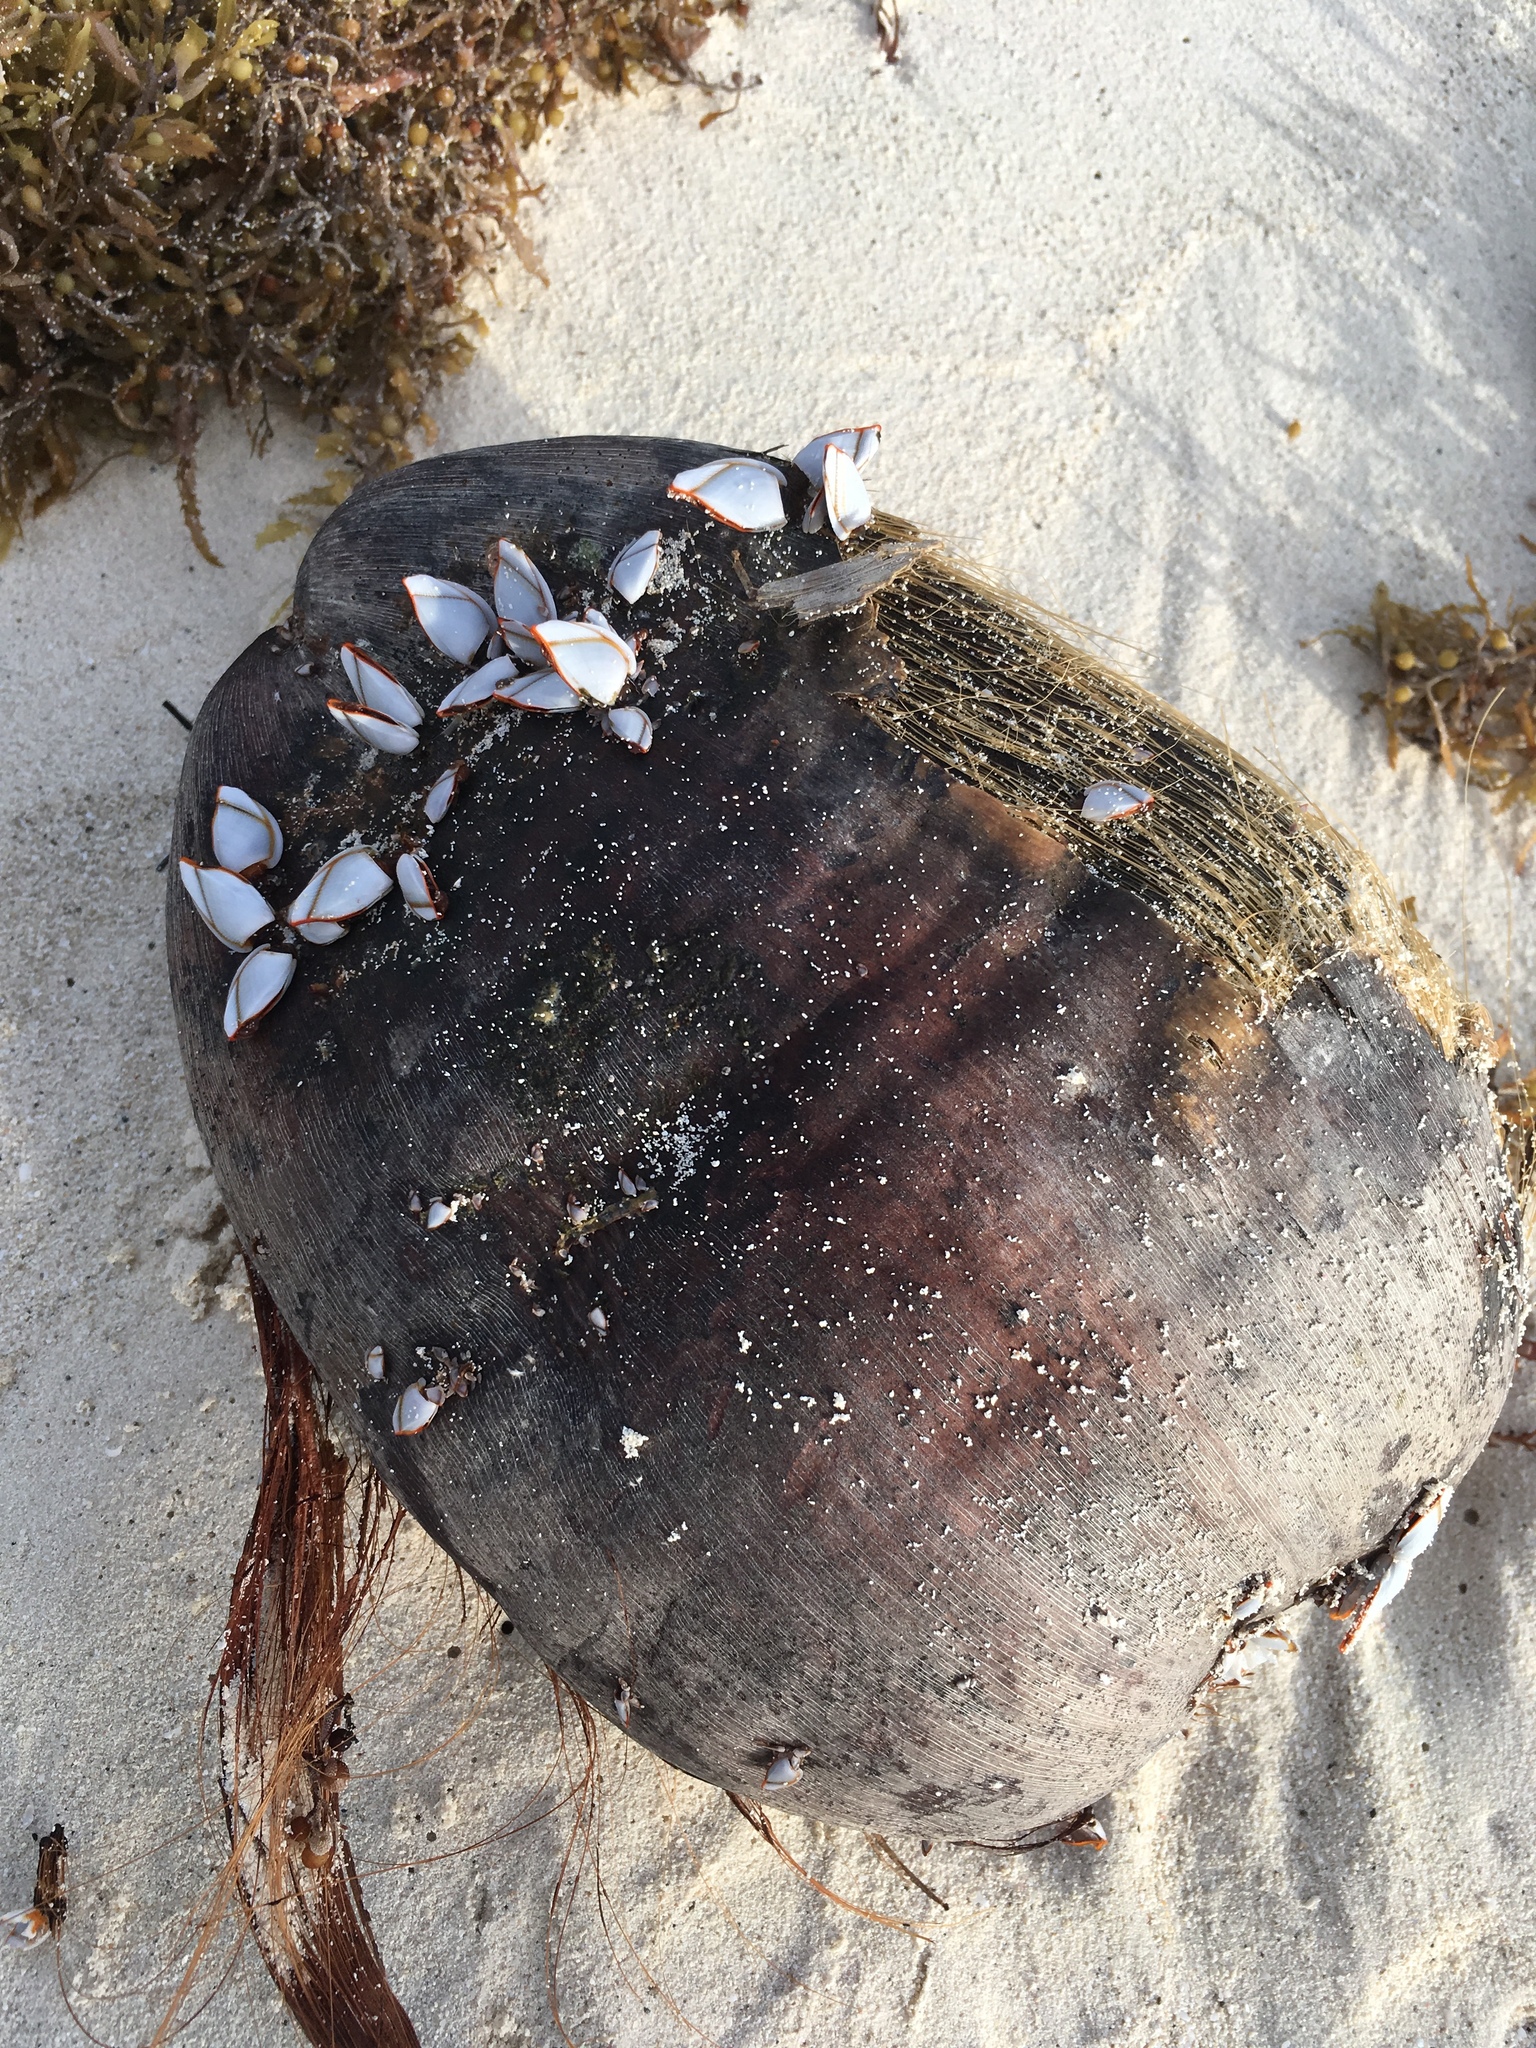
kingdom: Plantae
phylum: Tracheophyta
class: Liliopsida
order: Arecales
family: Arecaceae
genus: Cocos
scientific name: Cocos nucifera
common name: Coconut palm
